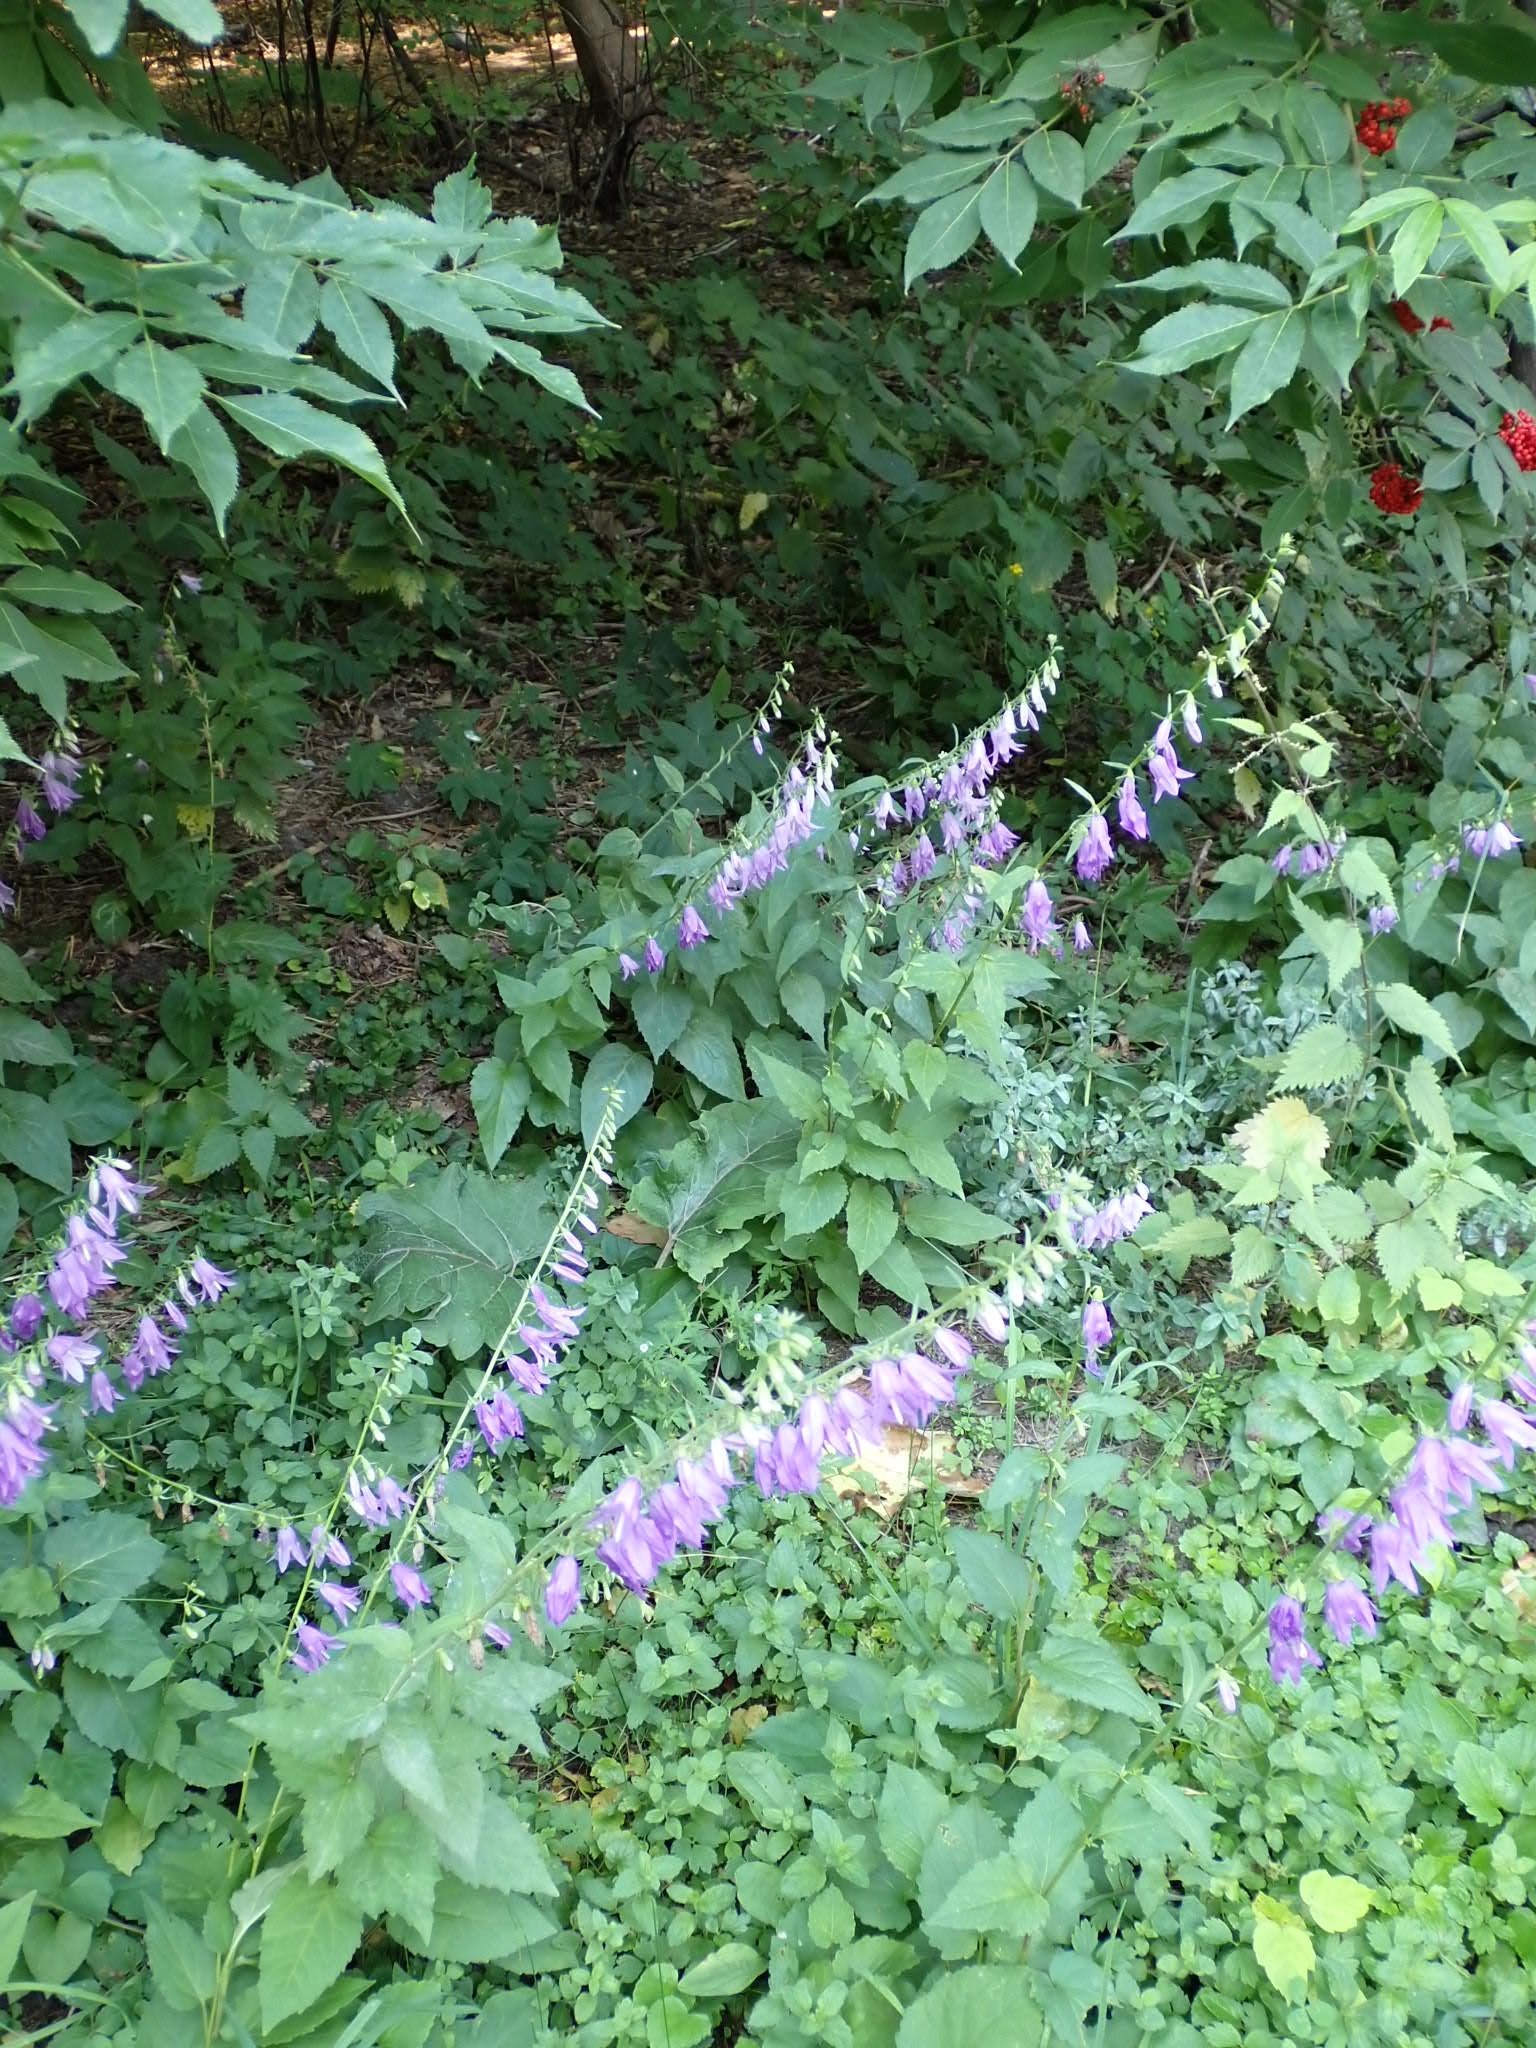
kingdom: Plantae
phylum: Tracheophyta
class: Magnoliopsida
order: Asterales
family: Campanulaceae
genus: Campanula
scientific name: Campanula rapunculoides
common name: Creeping bellflower
